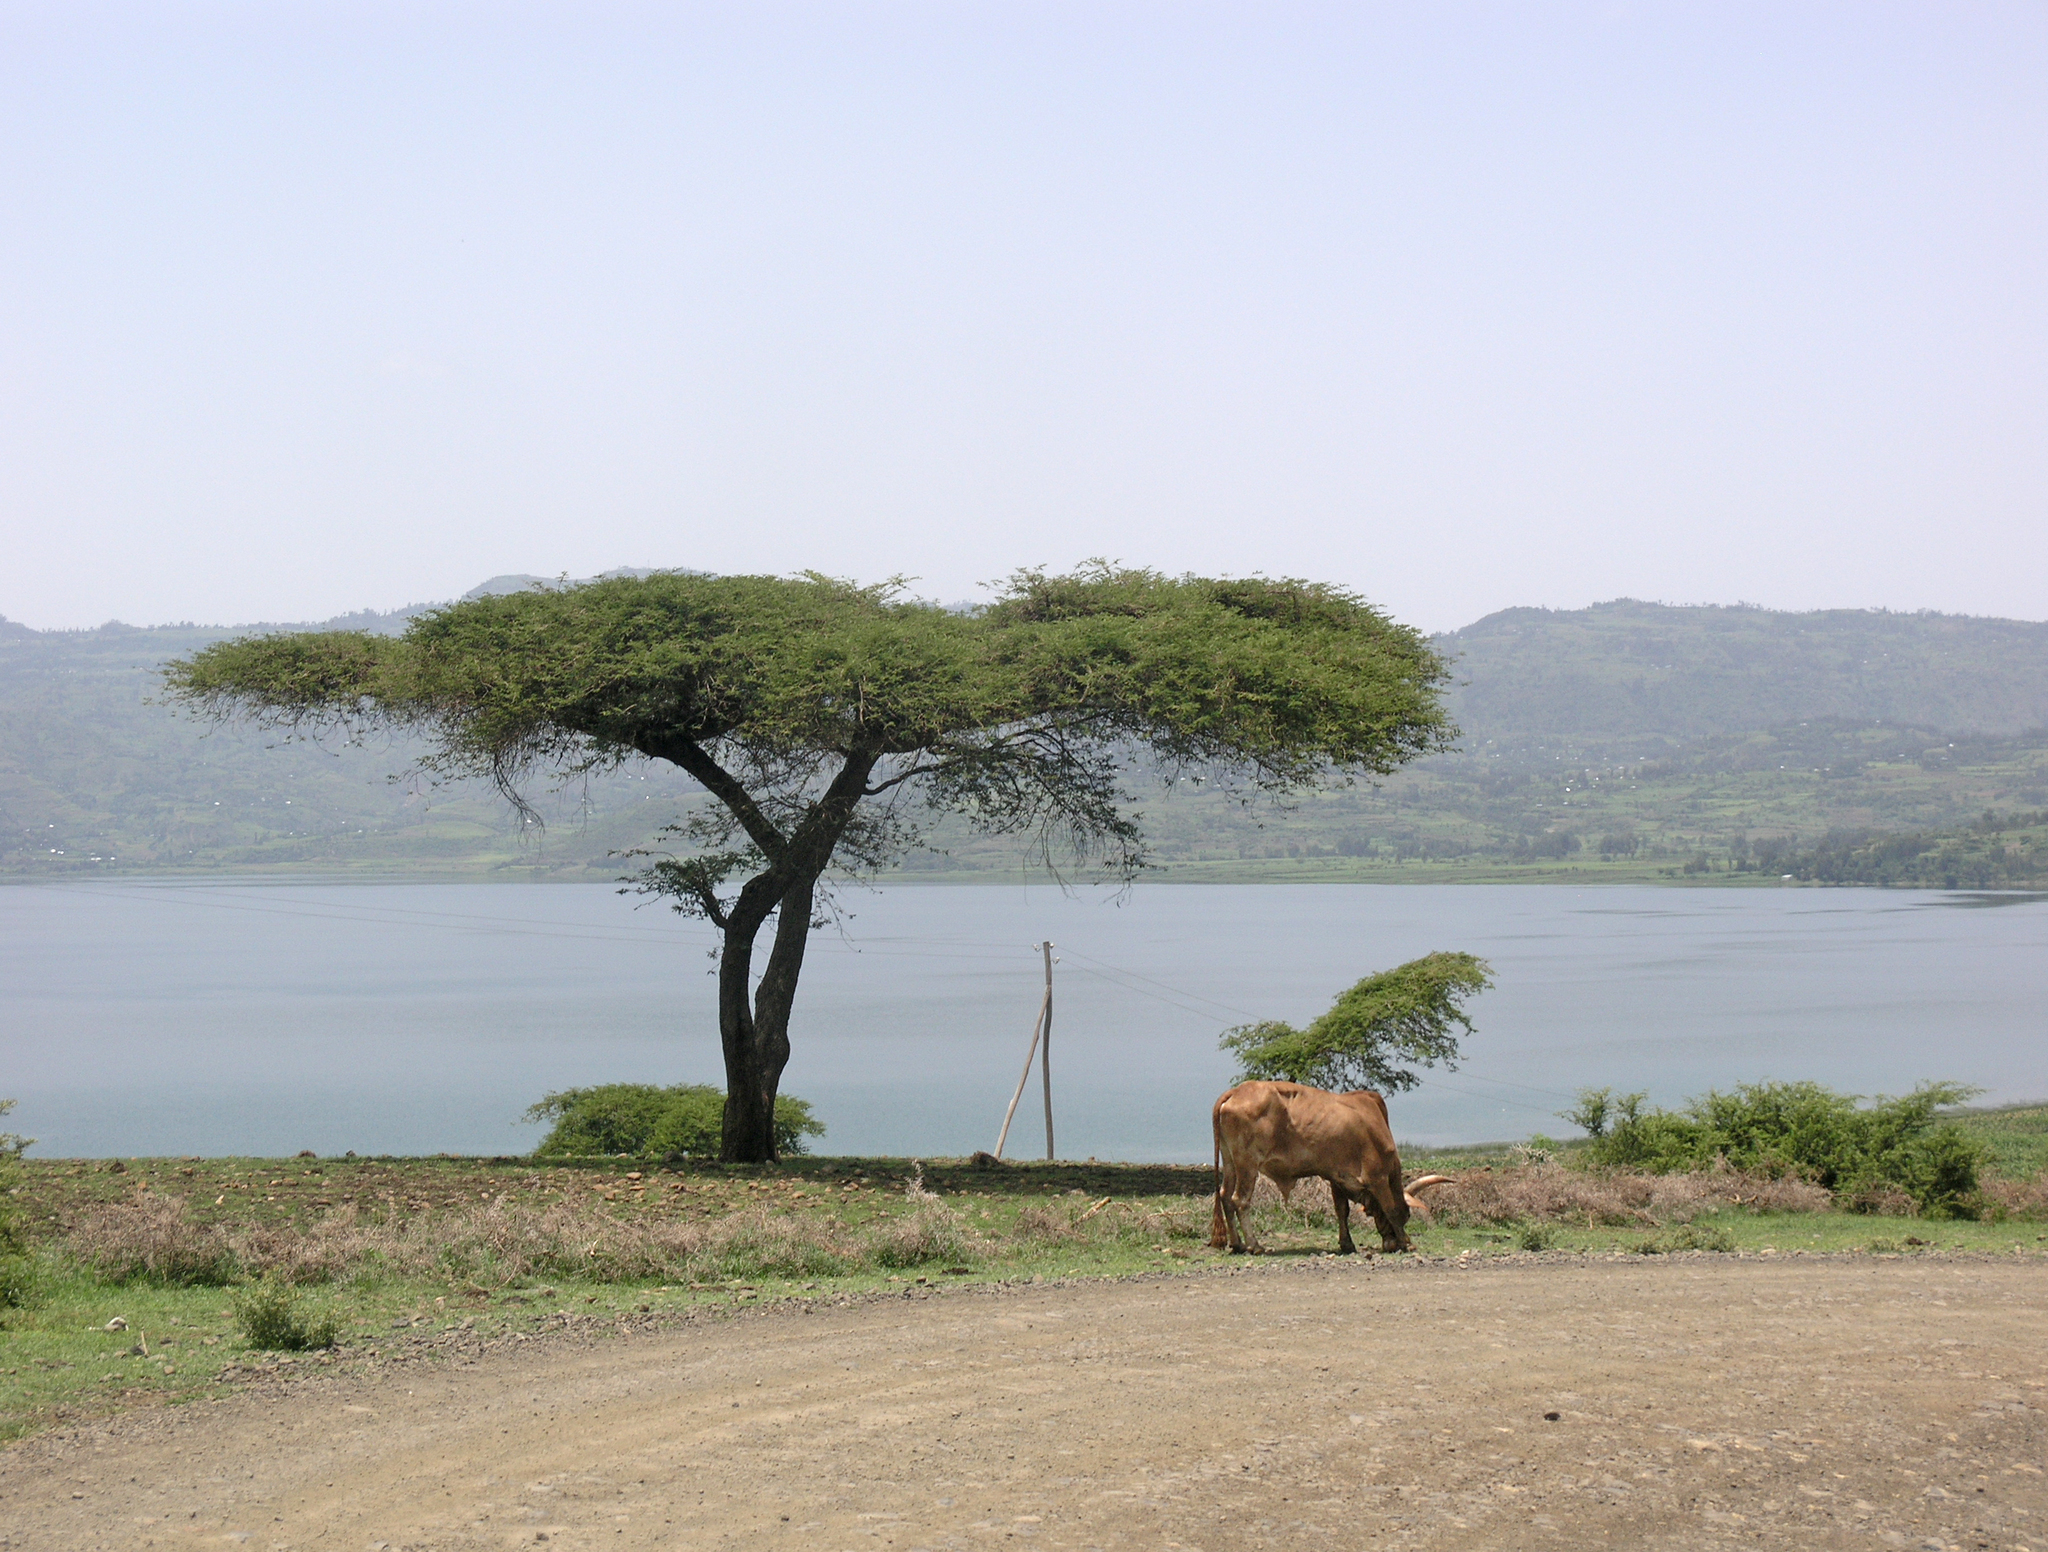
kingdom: Plantae
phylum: Tracheophyta
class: Magnoliopsida
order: Fabales
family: Fabaceae
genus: Vachellia
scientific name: Vachellia abyssinica
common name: Nyanga flat-top
